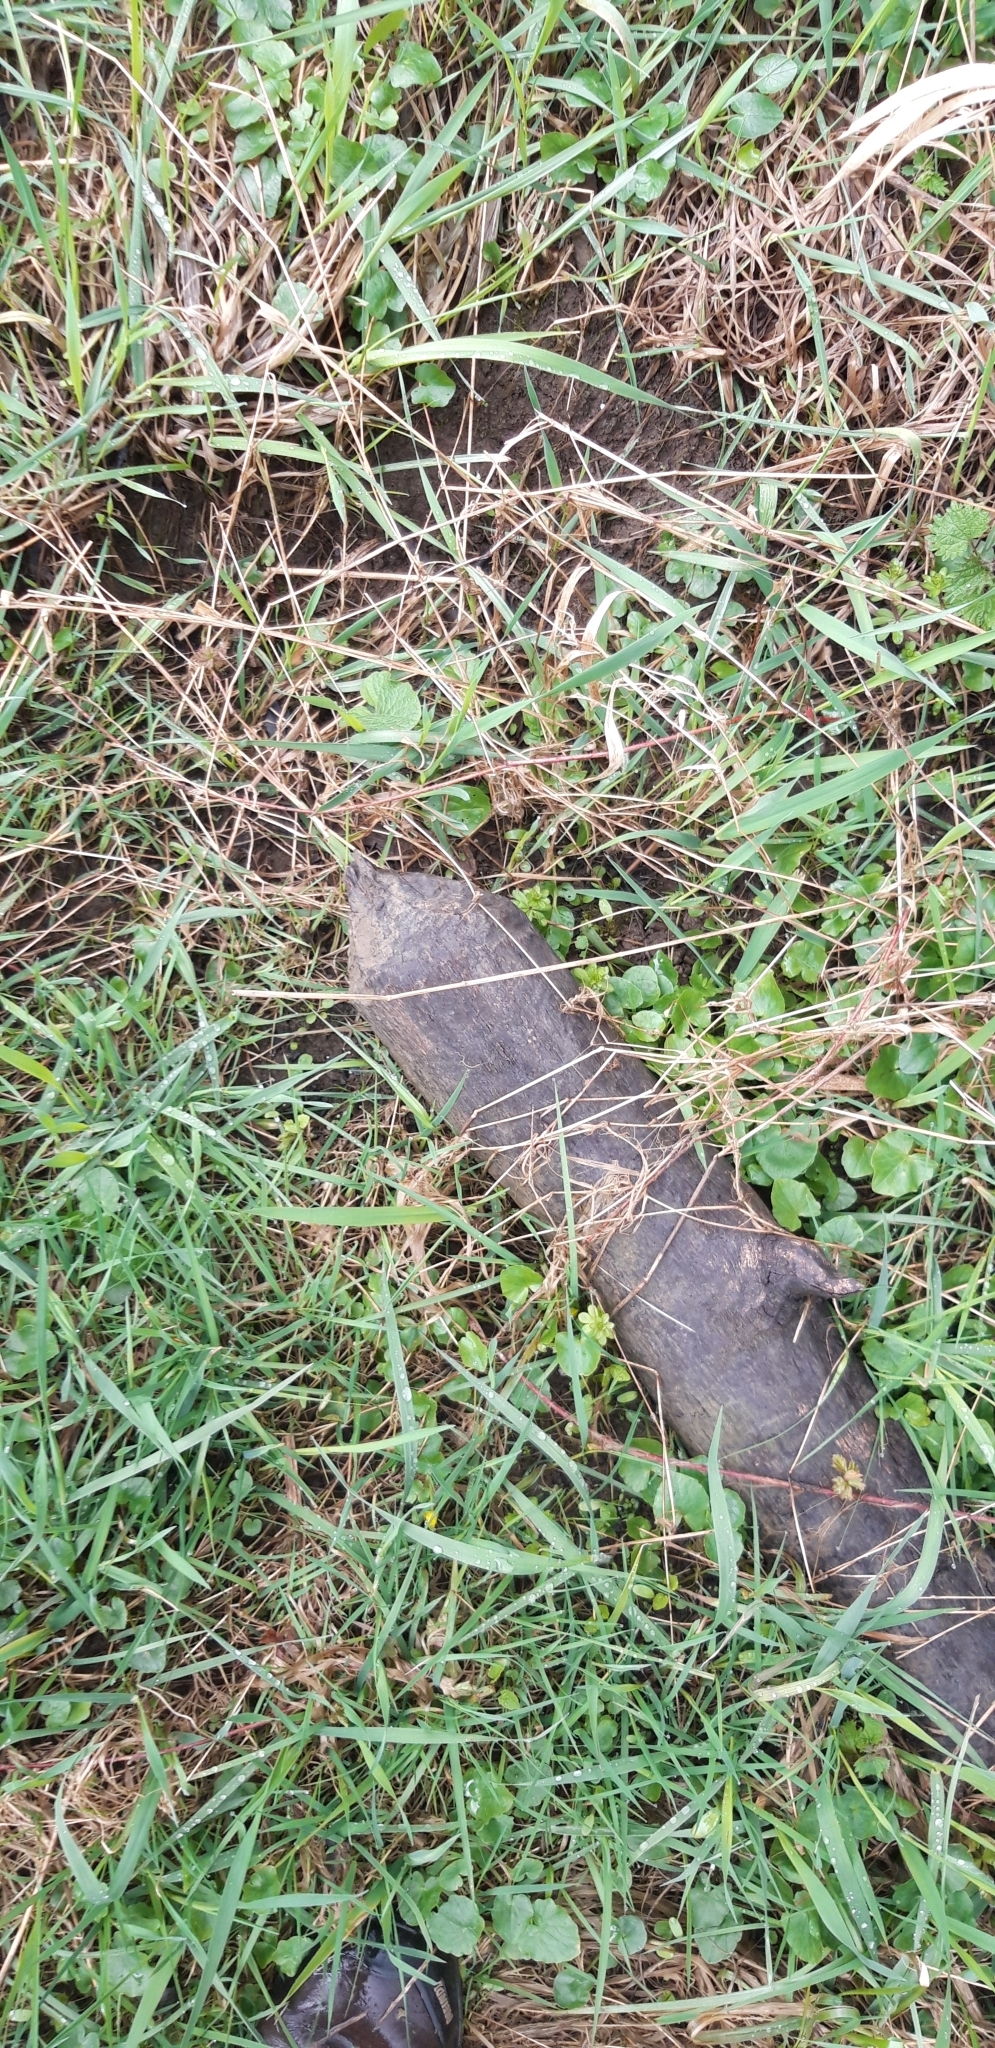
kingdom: Animalia
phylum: Chordata
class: Mammalia
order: Rodentia
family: Castoridae
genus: Castor
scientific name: Castor fiber
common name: Eurasian beaver
